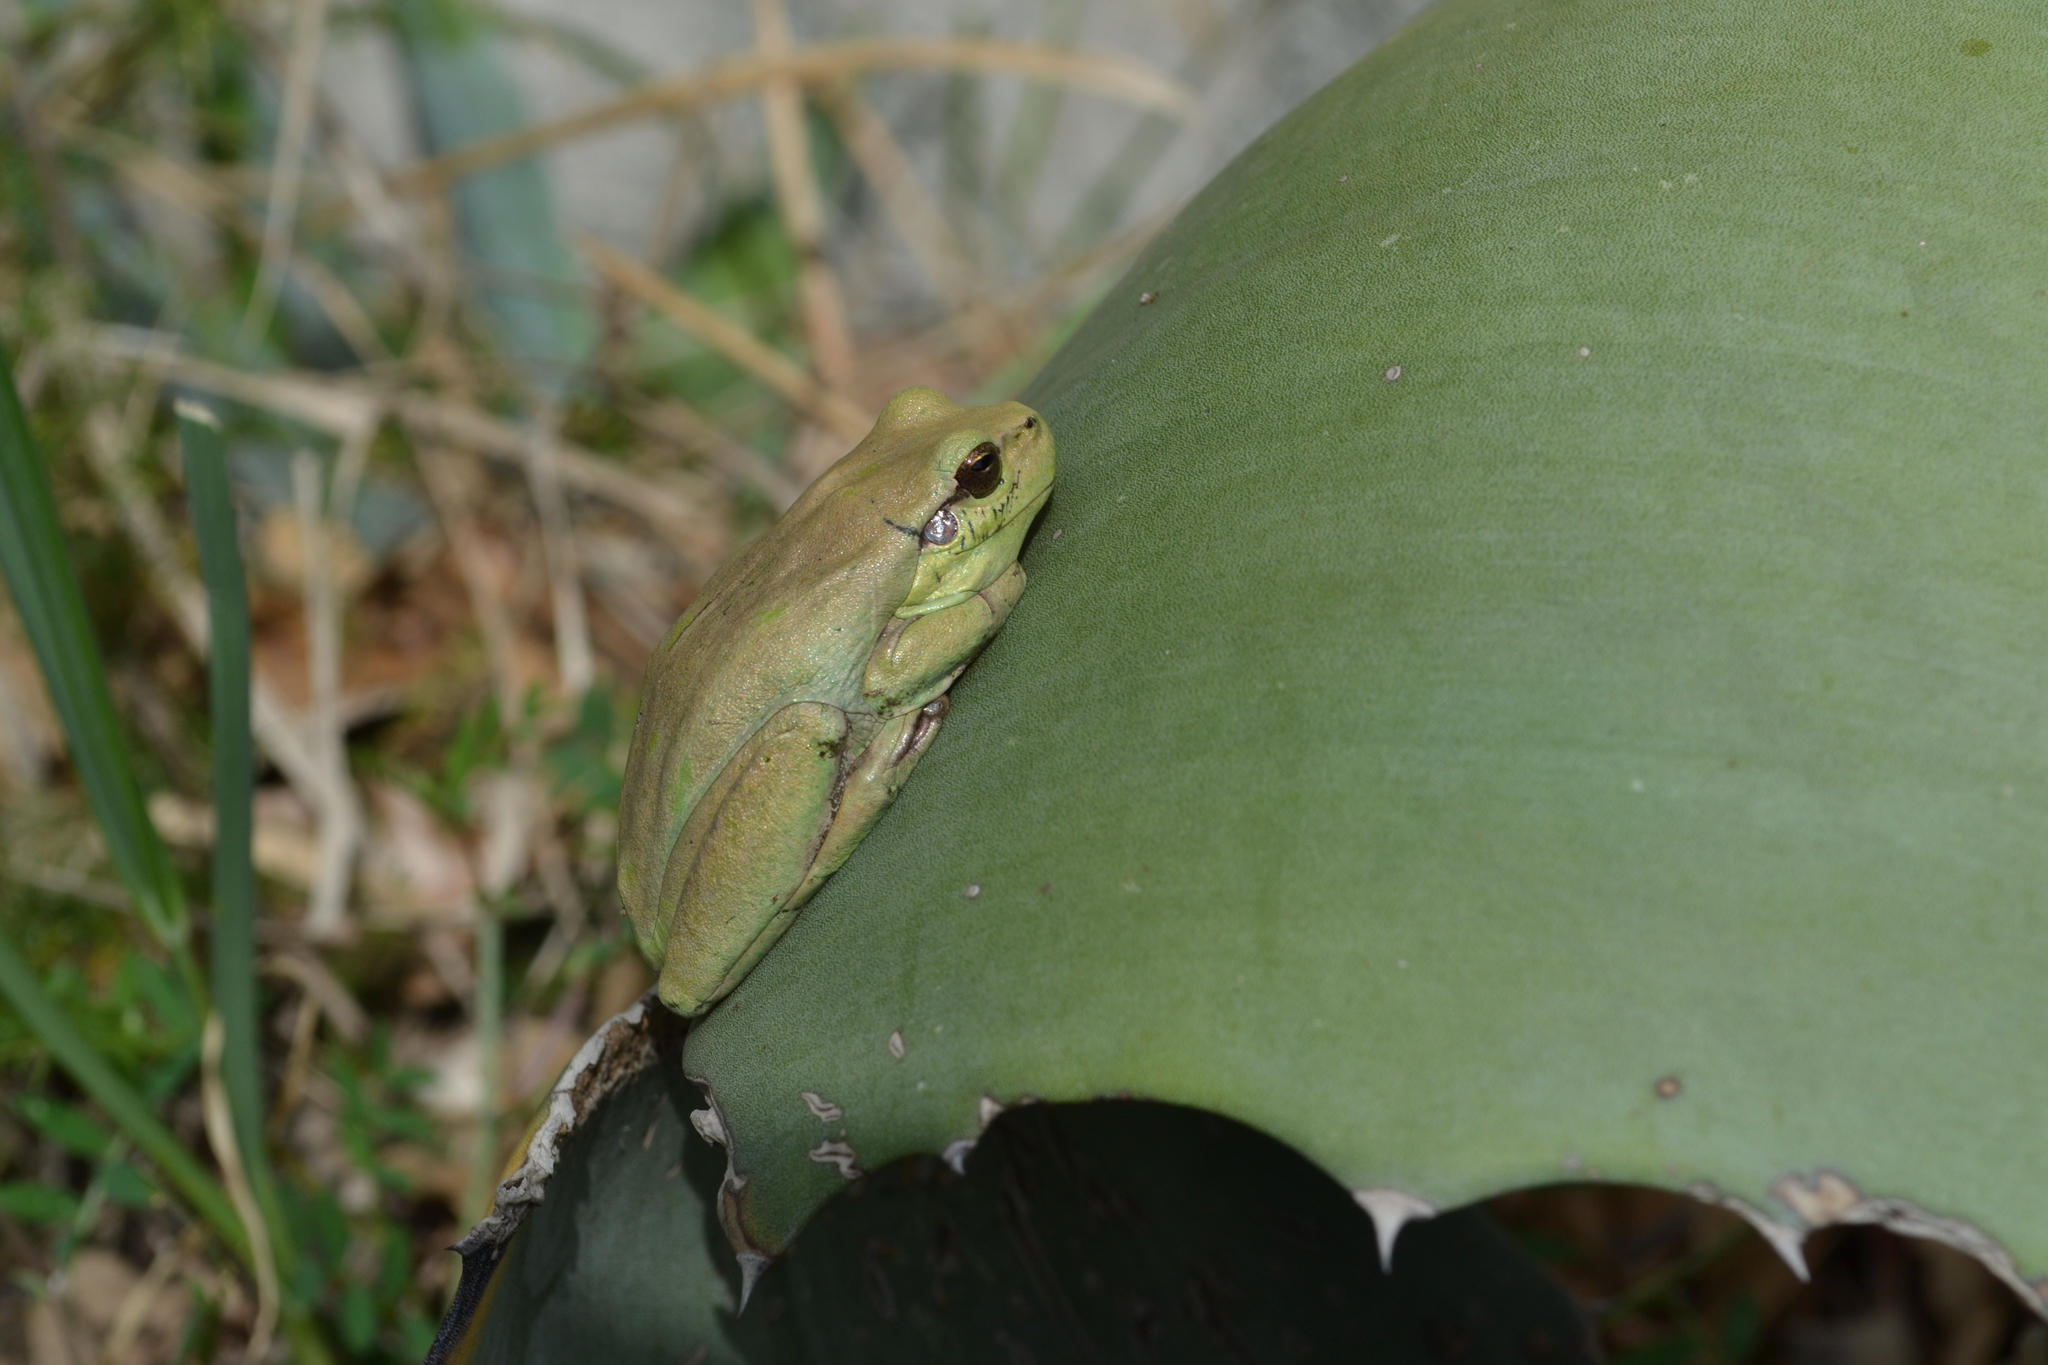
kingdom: Animalia
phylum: Chordata
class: Amphibia
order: Anura
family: Hylidae
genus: Hyla
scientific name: Hyla meridionalis
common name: Stripeless tree frog
